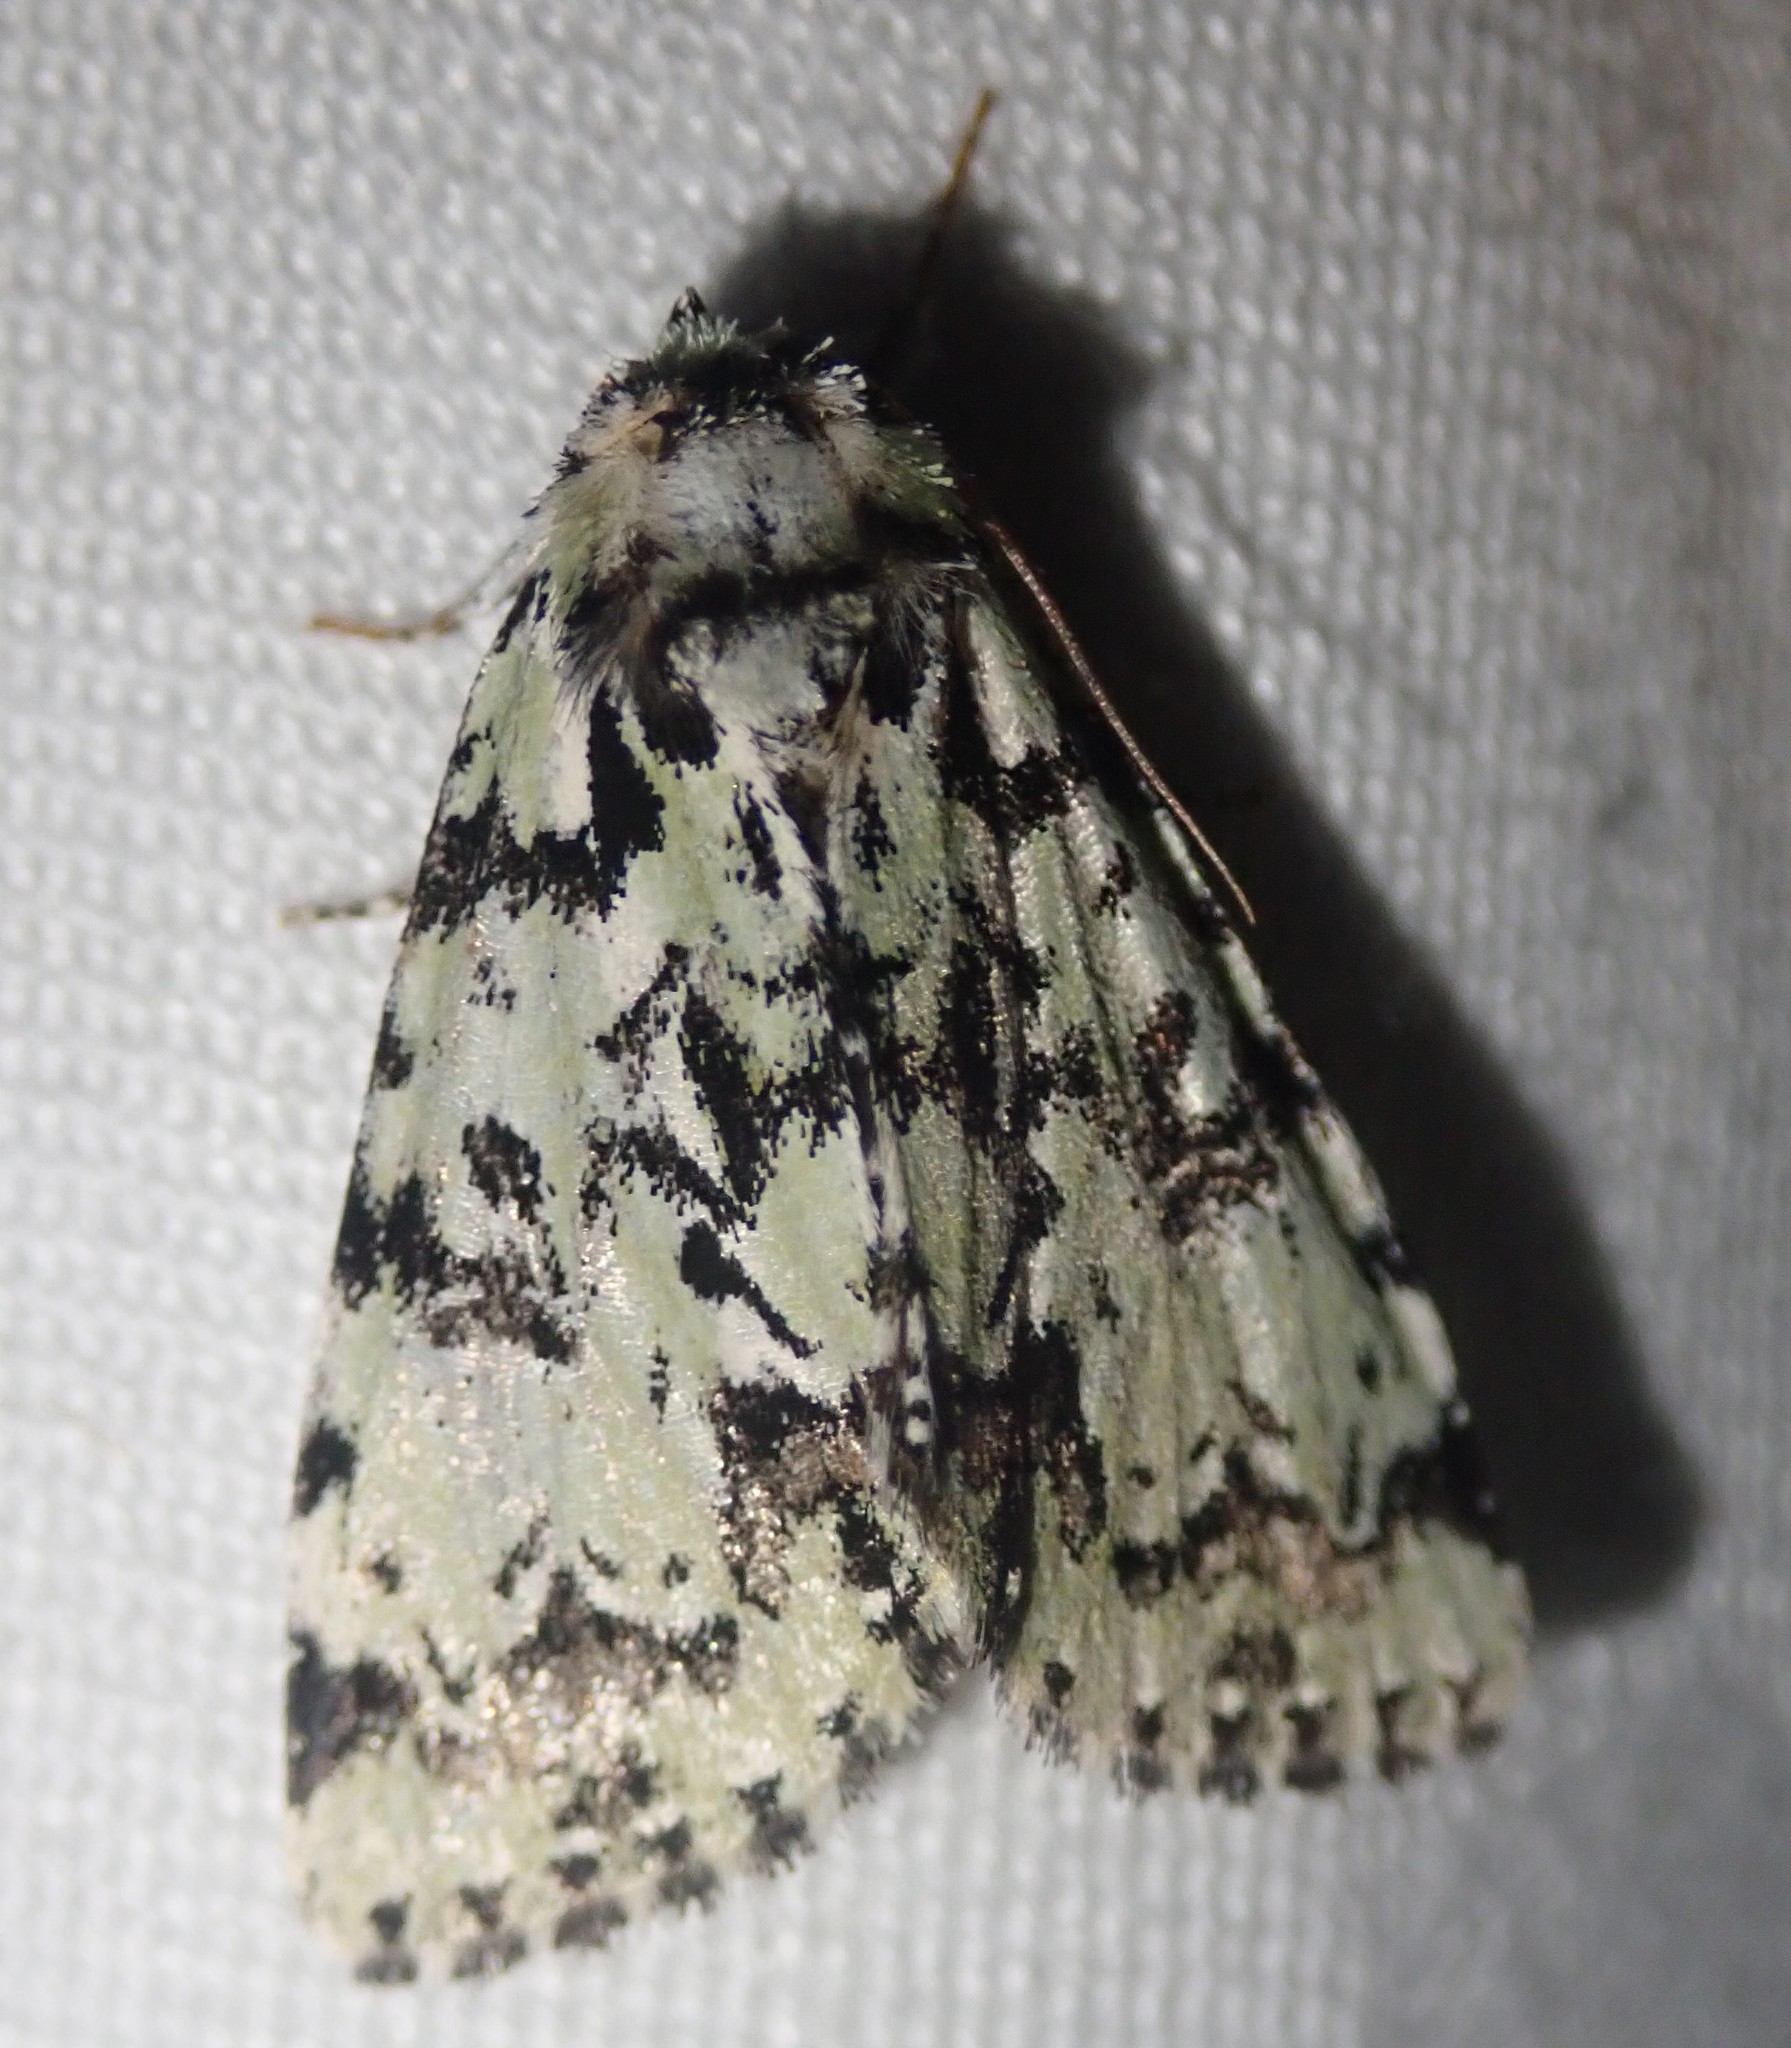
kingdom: Animalia
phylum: Arthropoda
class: Insecta
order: Lepidoptera
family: Noctuidae
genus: Moma
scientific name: Moma alpium
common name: Scarce merveille du jour
